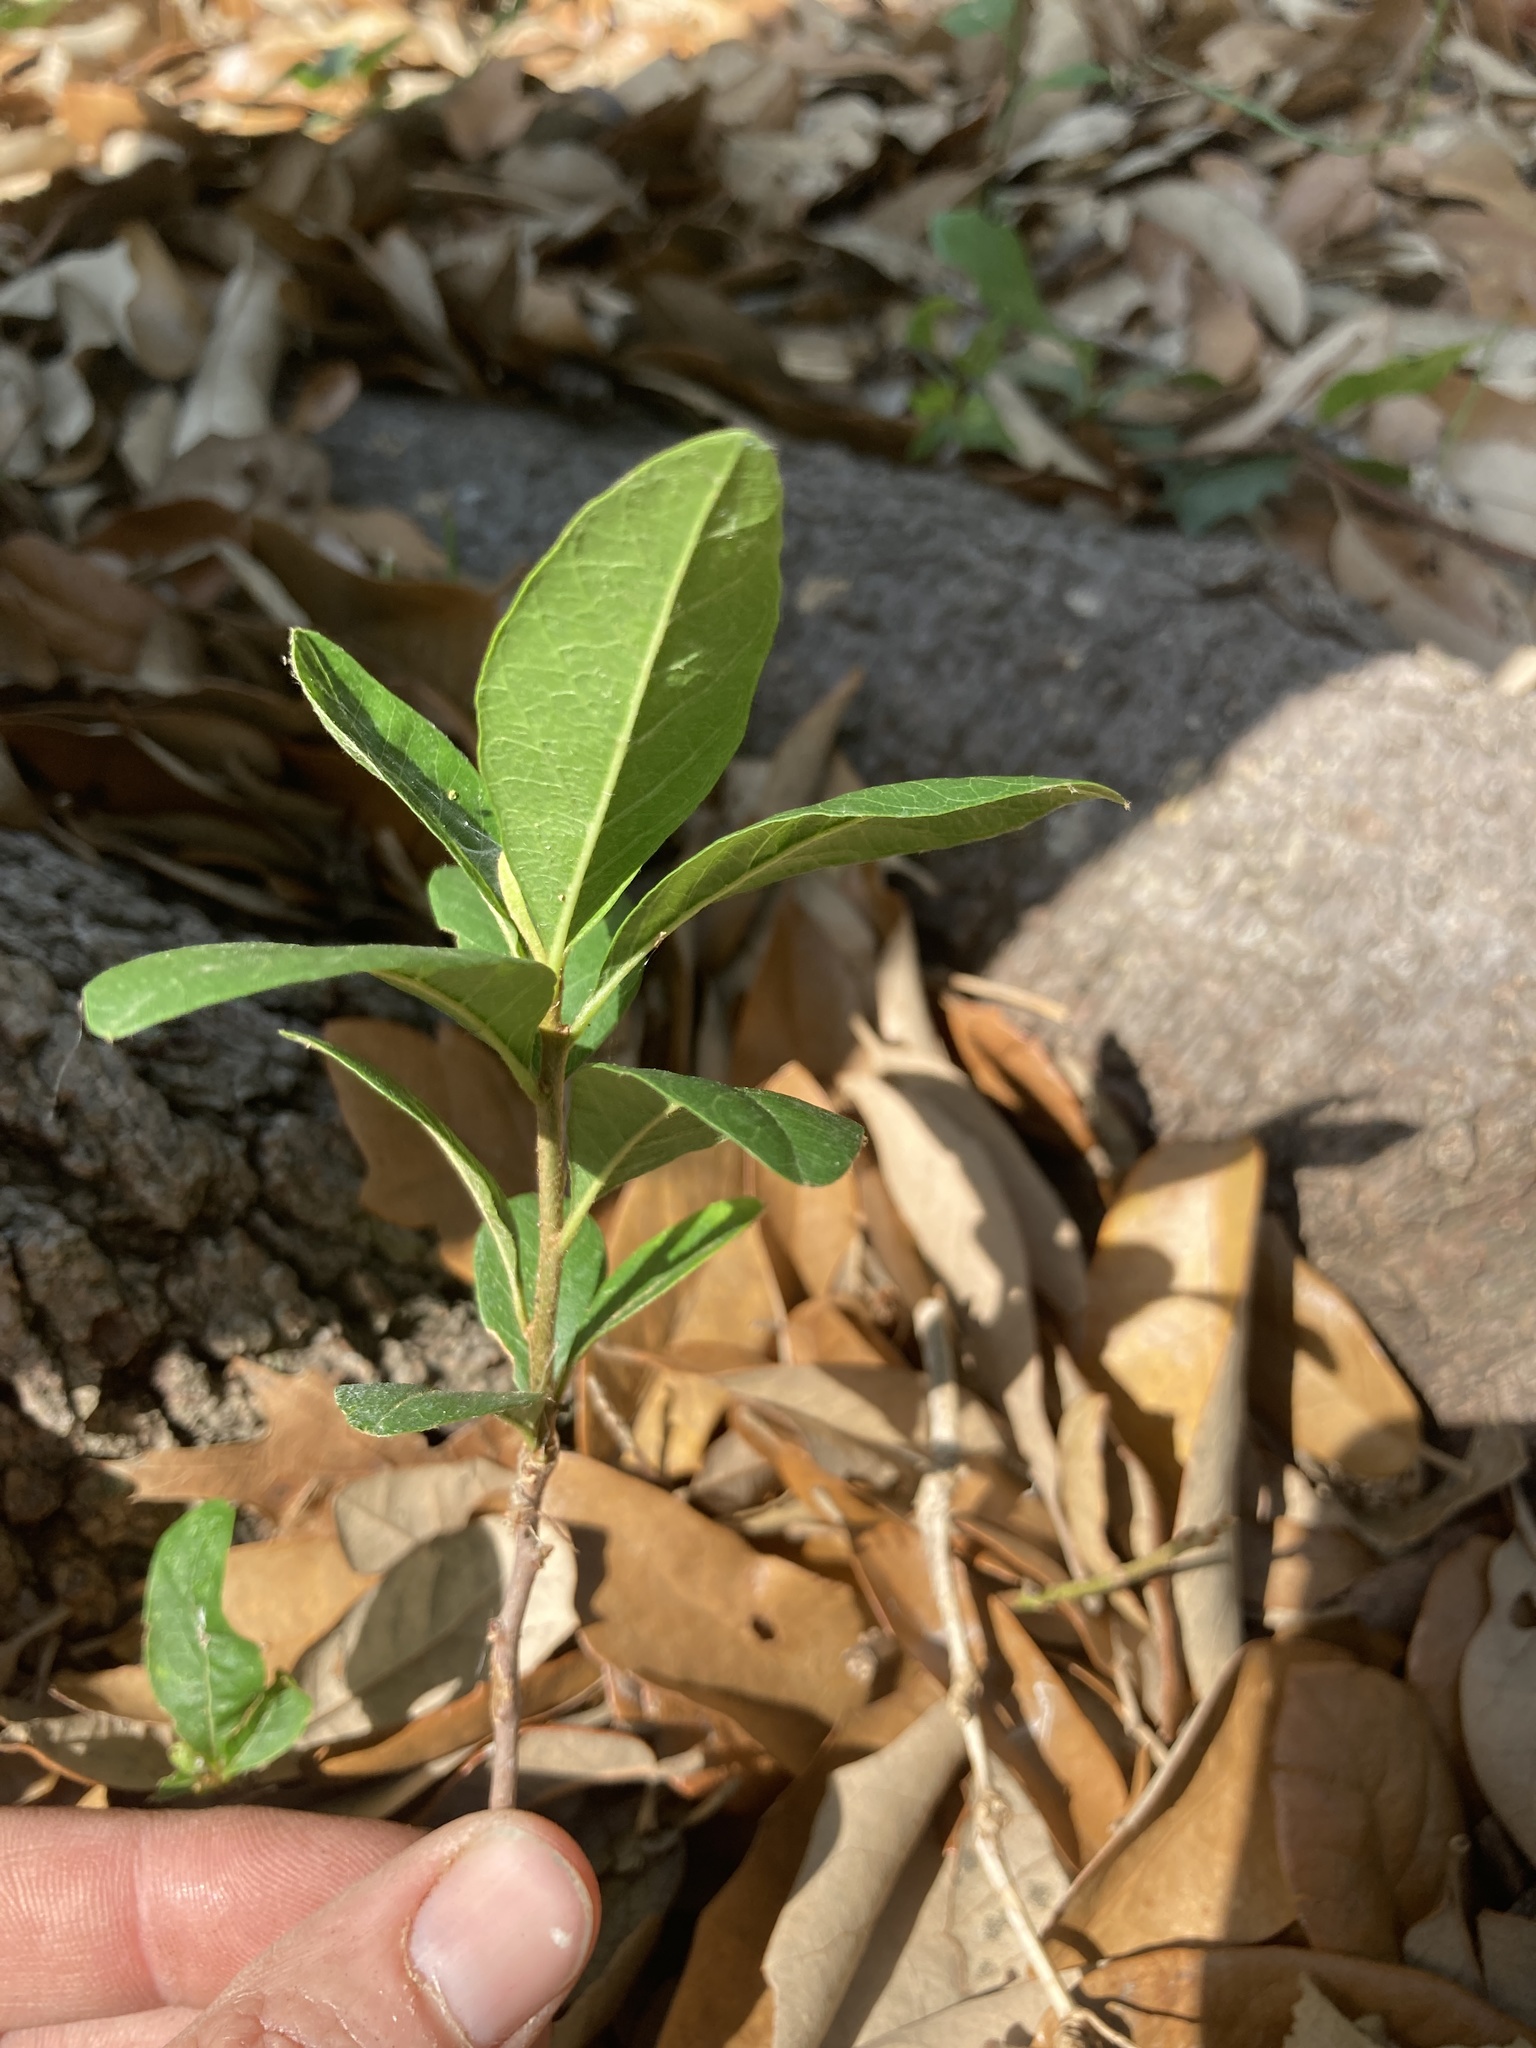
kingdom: Plantae
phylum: Tracheophyta
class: Magnoliopsida
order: Ericales
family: Sapotaceae
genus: Sideroxylon
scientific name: Sideroxylon lanuginosum
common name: Chittamwood
